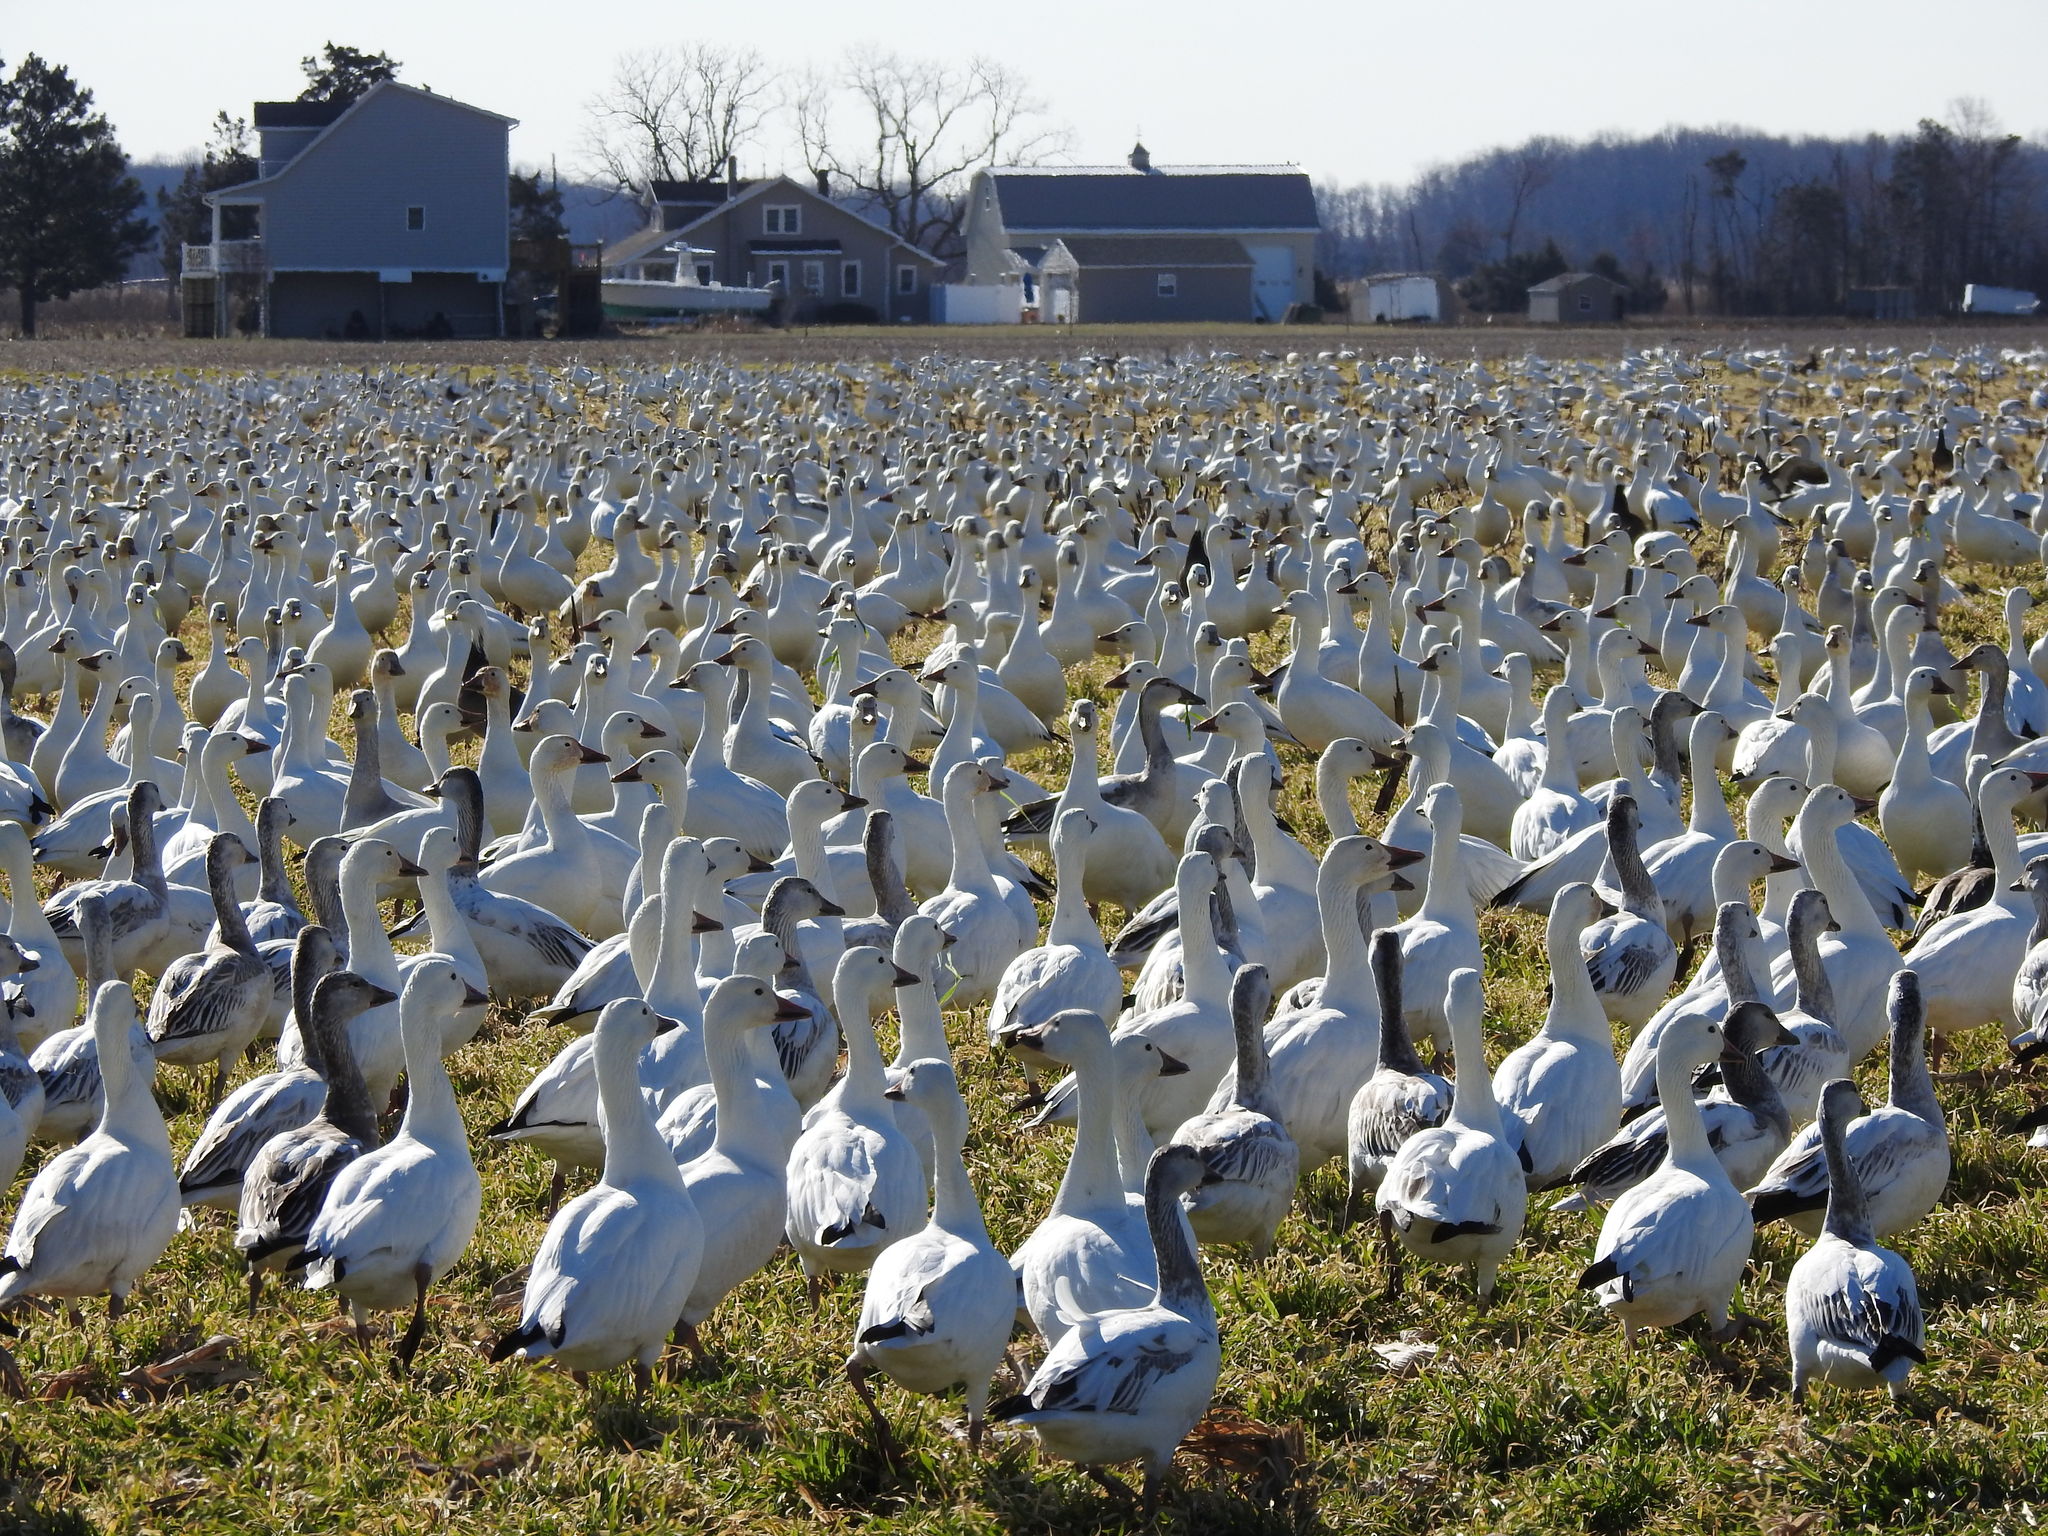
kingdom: Animalia
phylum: Chordata
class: Aves
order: Anseriformes
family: Anatidae
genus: Anser
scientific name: Anser caerulescens
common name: Snow goose
